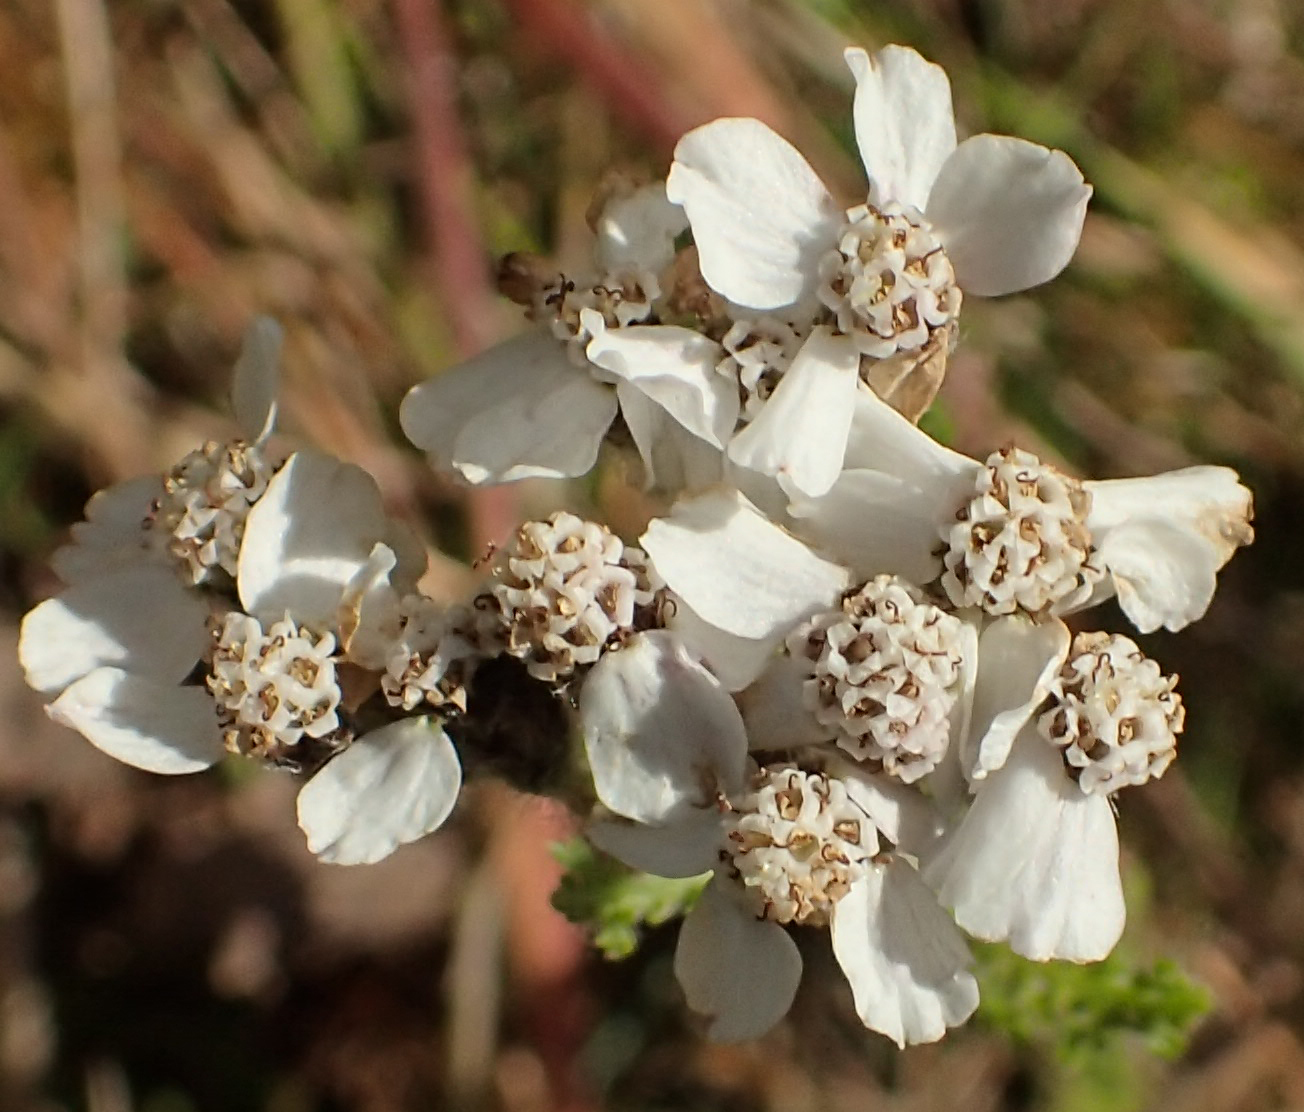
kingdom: Plantae
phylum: Tracheophyta
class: Magnoliopsida
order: Asterales
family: Asteraceae
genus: Achillea
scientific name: Achillea millefolium
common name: Yarrow
